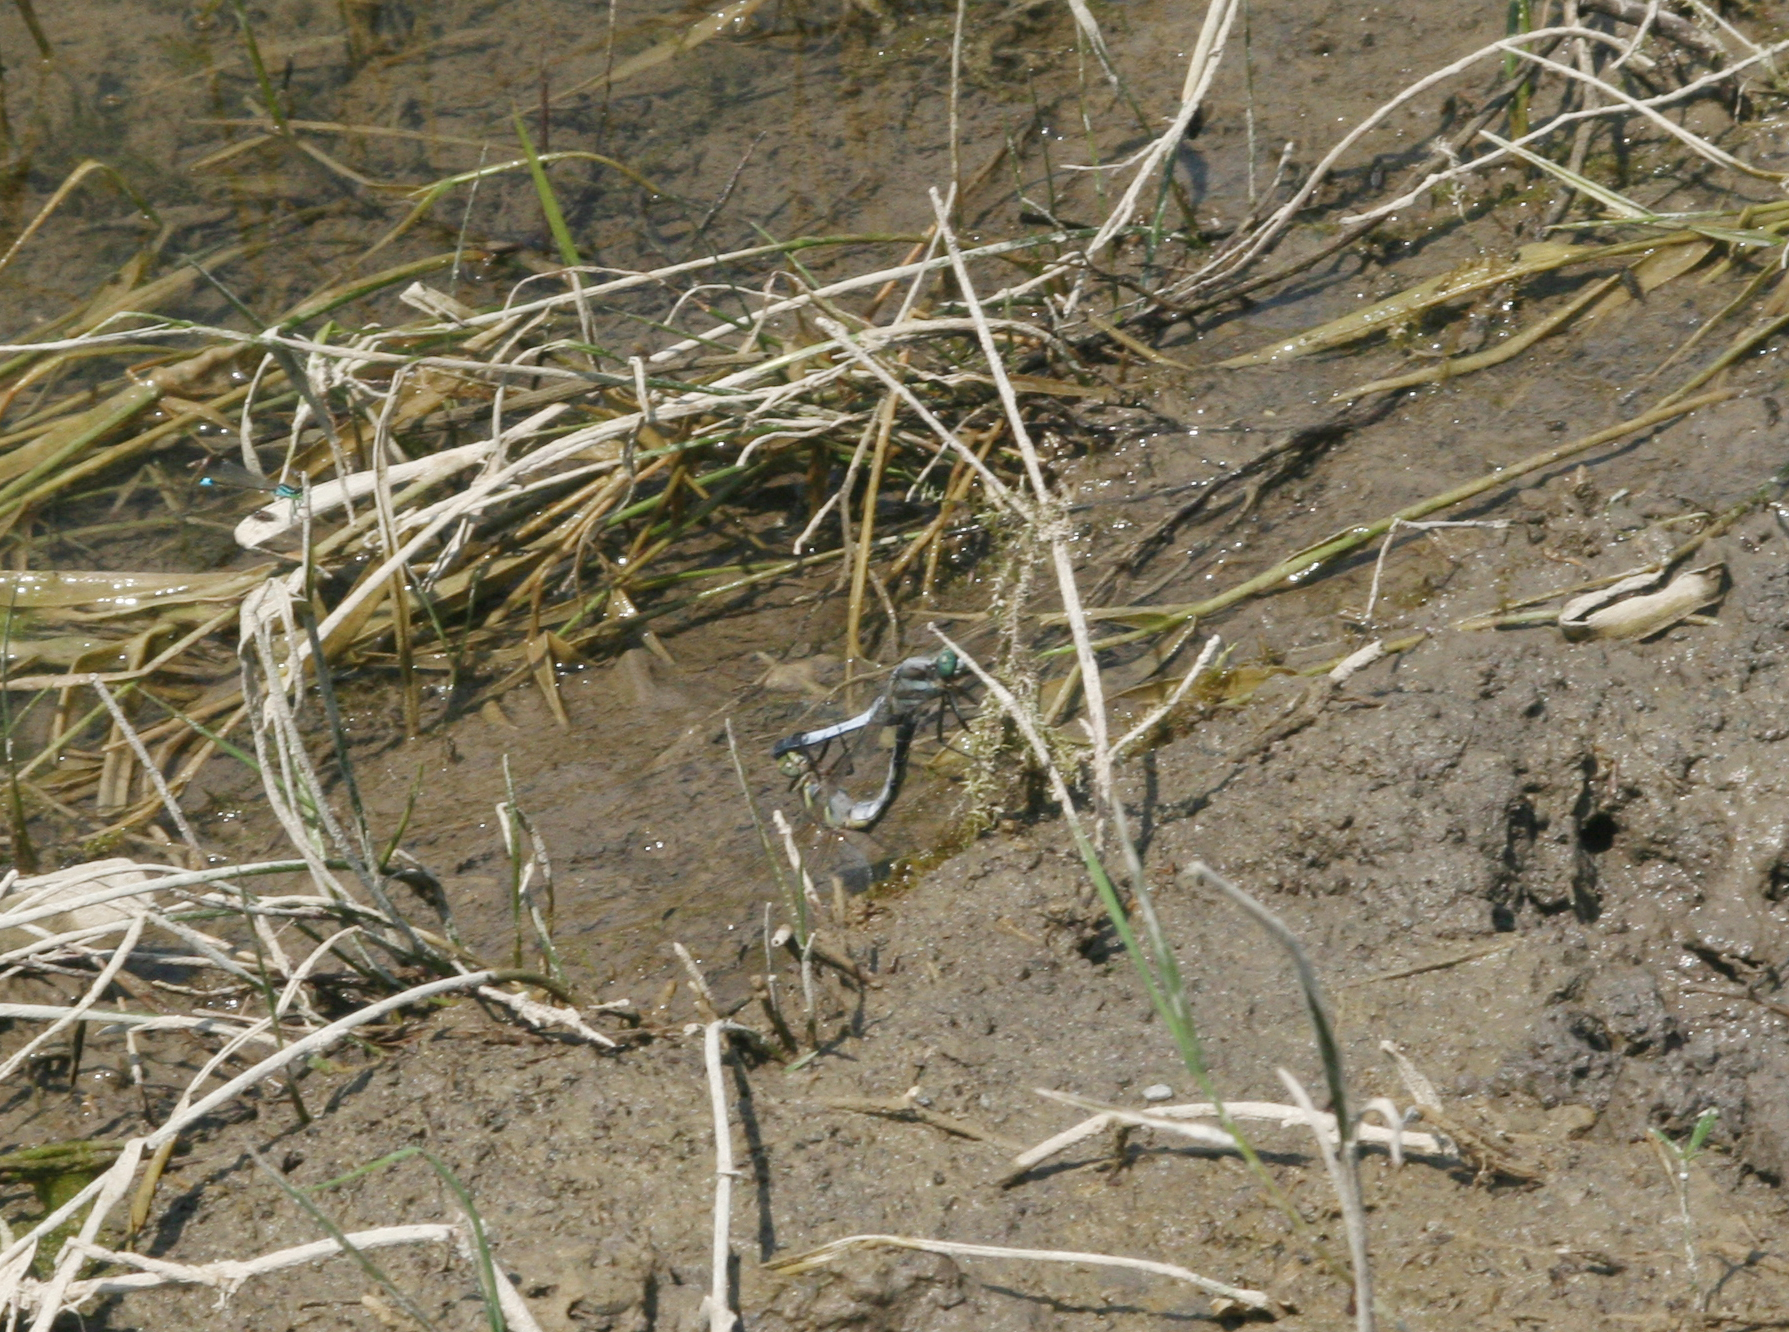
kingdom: Animalia
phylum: Arthropoda
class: Insecta
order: Odonata
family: Libellulidae
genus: Orthetrum
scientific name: Orthetrum albistylum
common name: White-tailed skimmer
